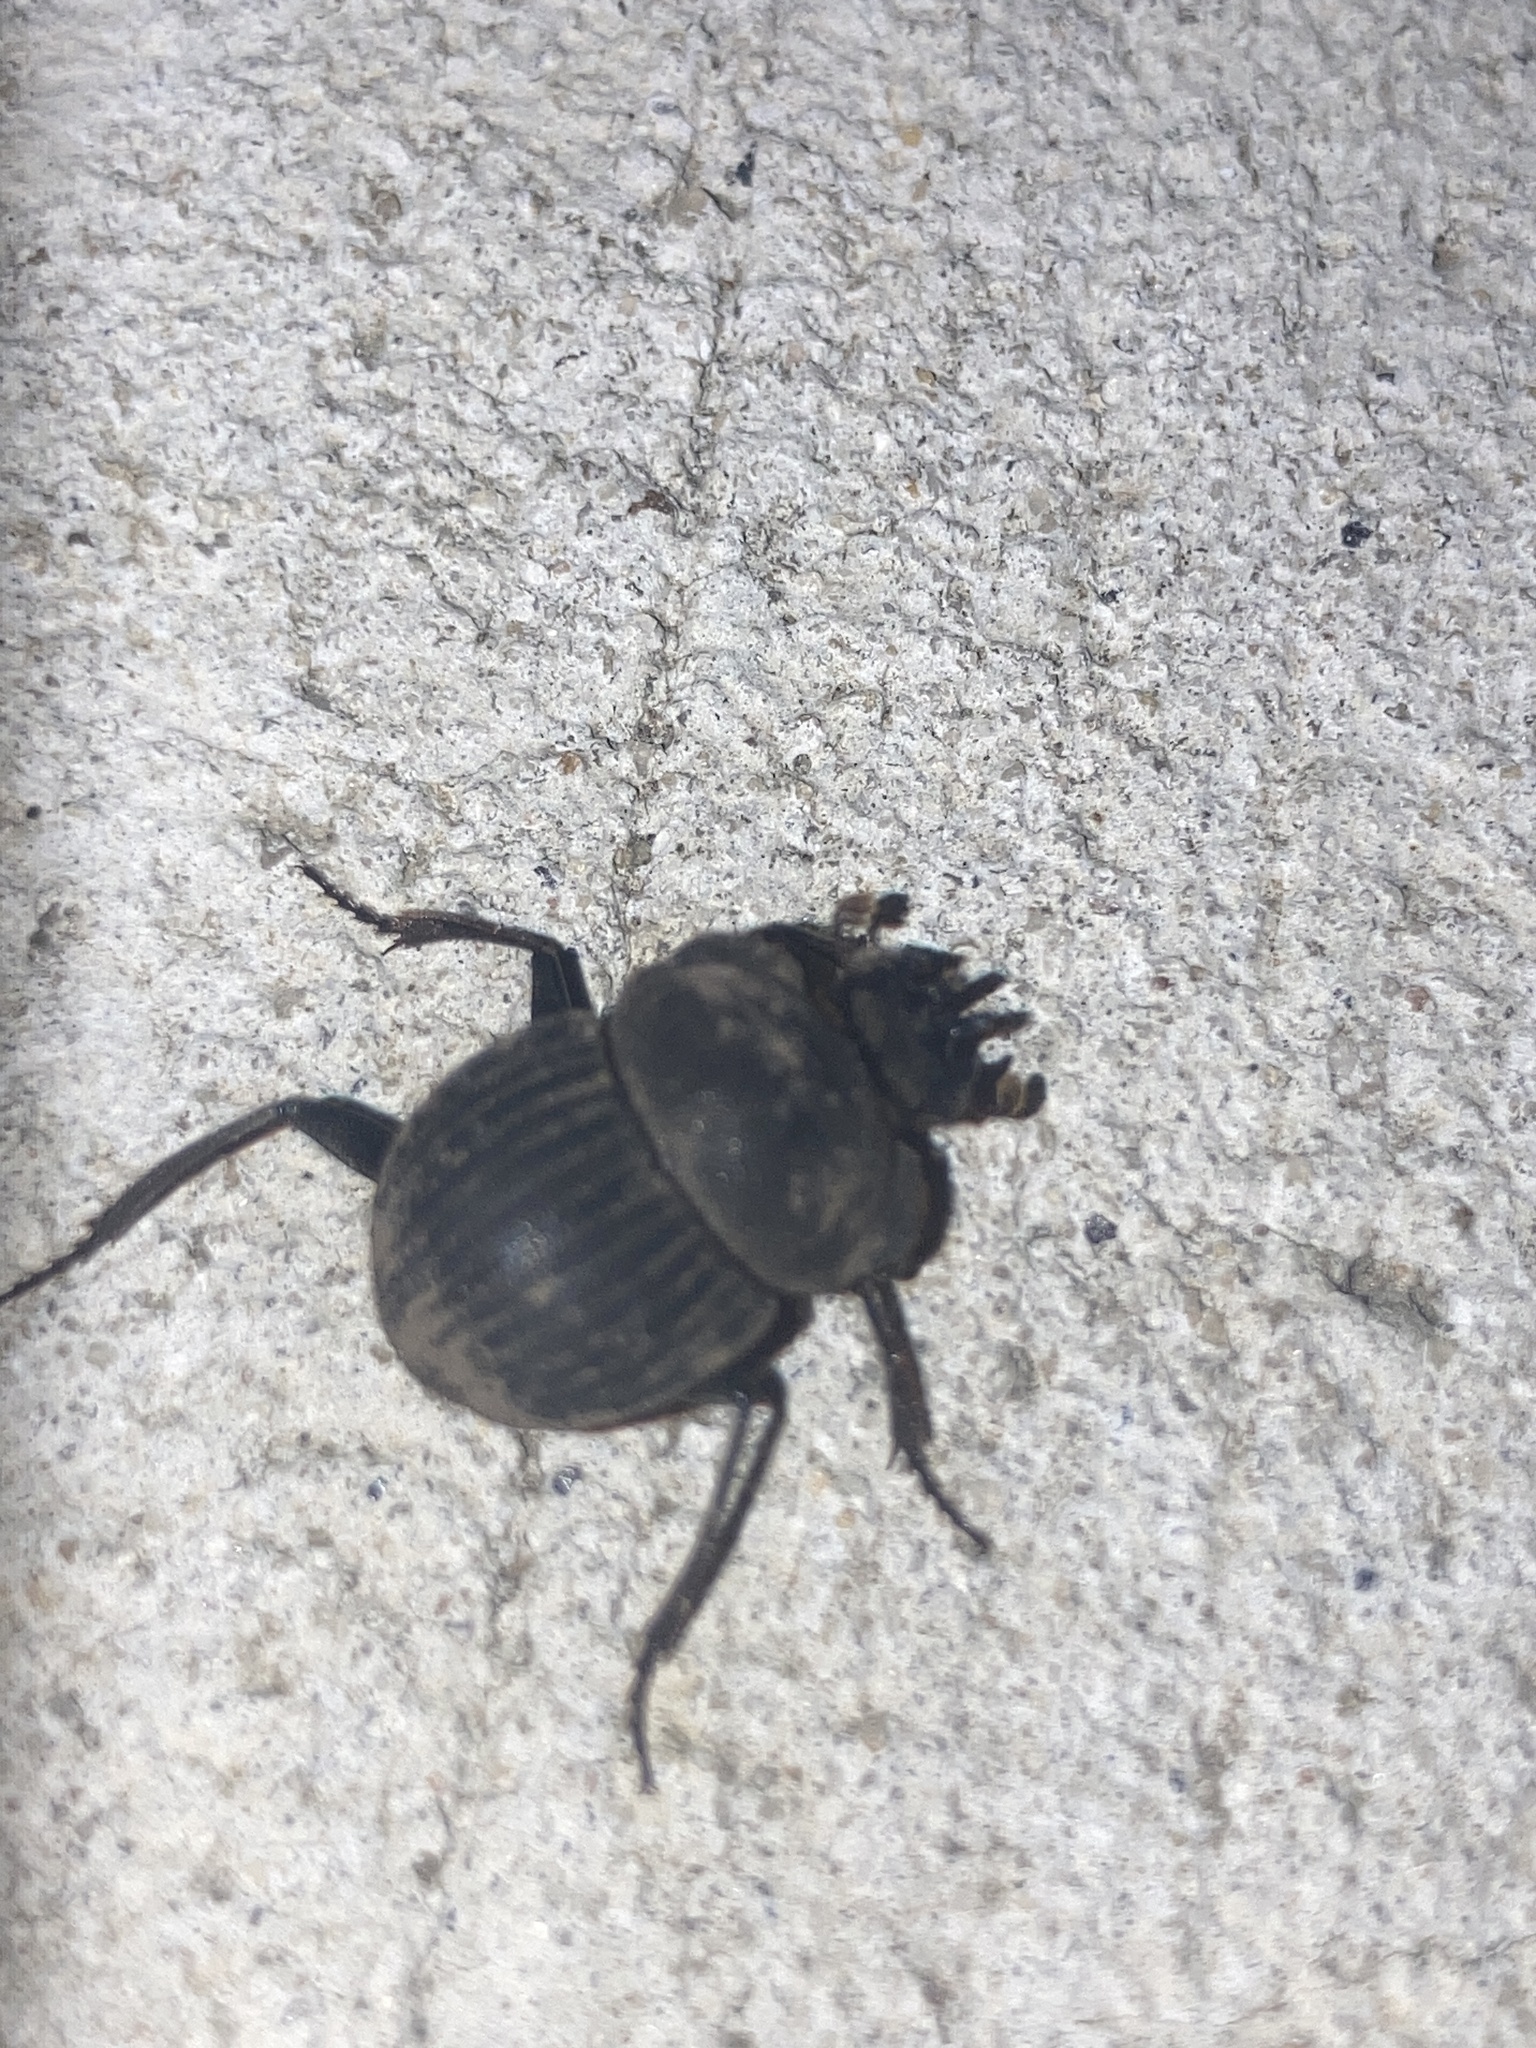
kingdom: Animalia
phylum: Arthropoda
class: Insecta
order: Coleoptera
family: Scarabaeidae
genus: Cephalodesmius
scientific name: Cephalodesmius armiger
